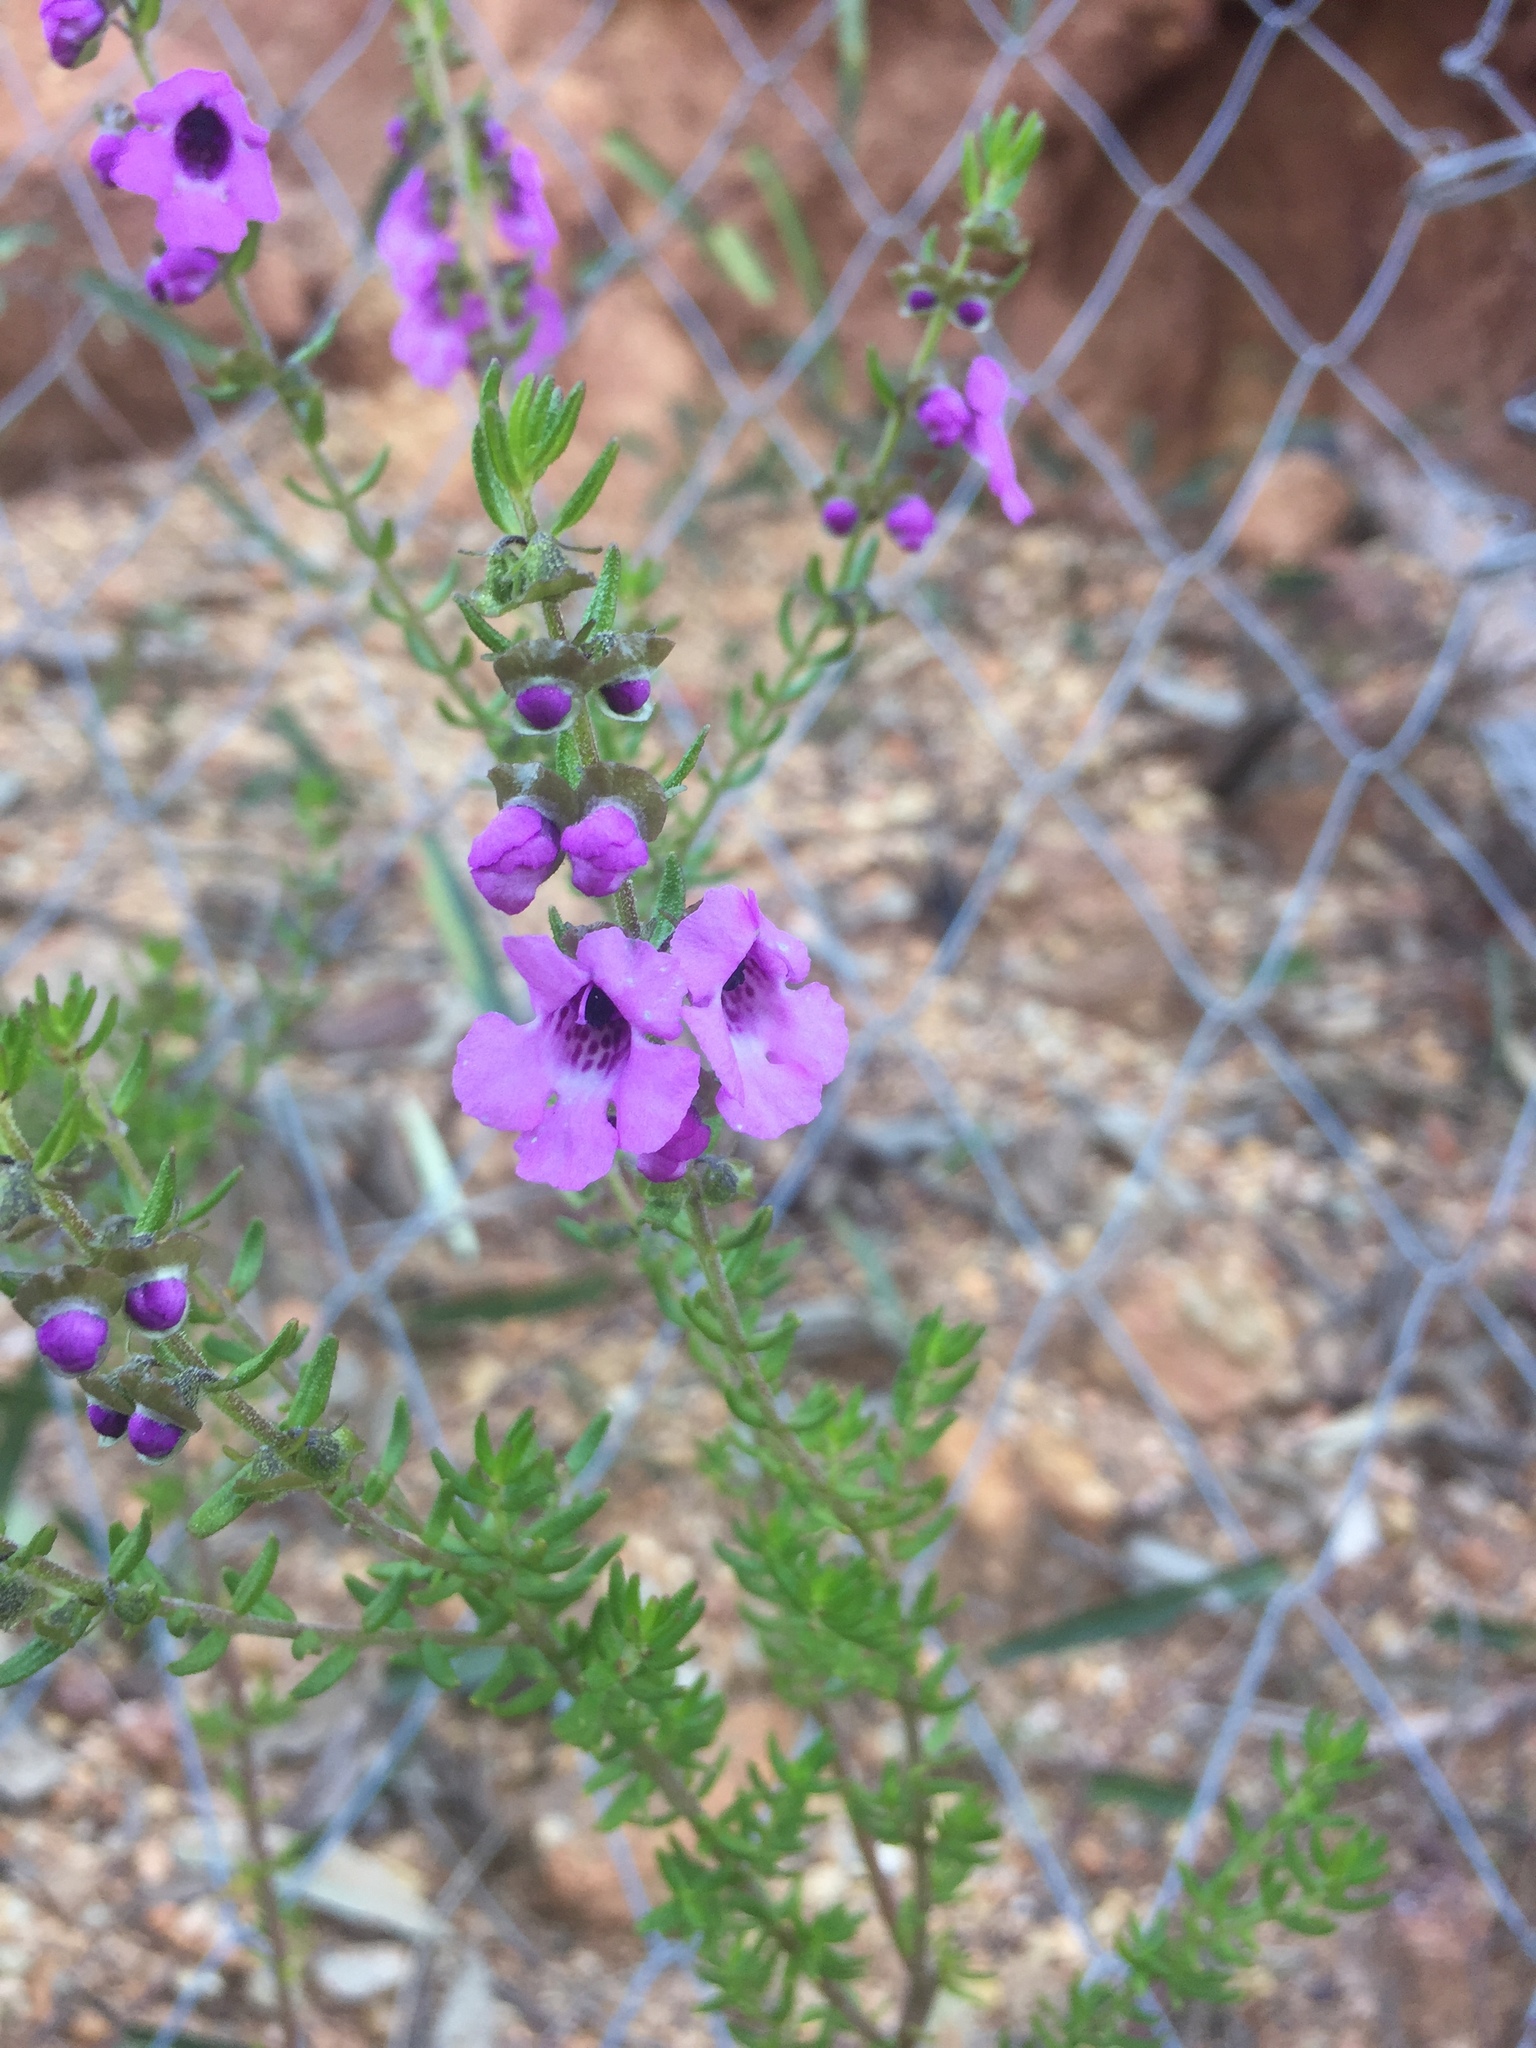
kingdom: Plantae
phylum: Tracheophyta
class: Magnoliopsida
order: Lamiales
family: Lamiaceae
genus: Prostanthera
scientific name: Prostanthera howelliae
